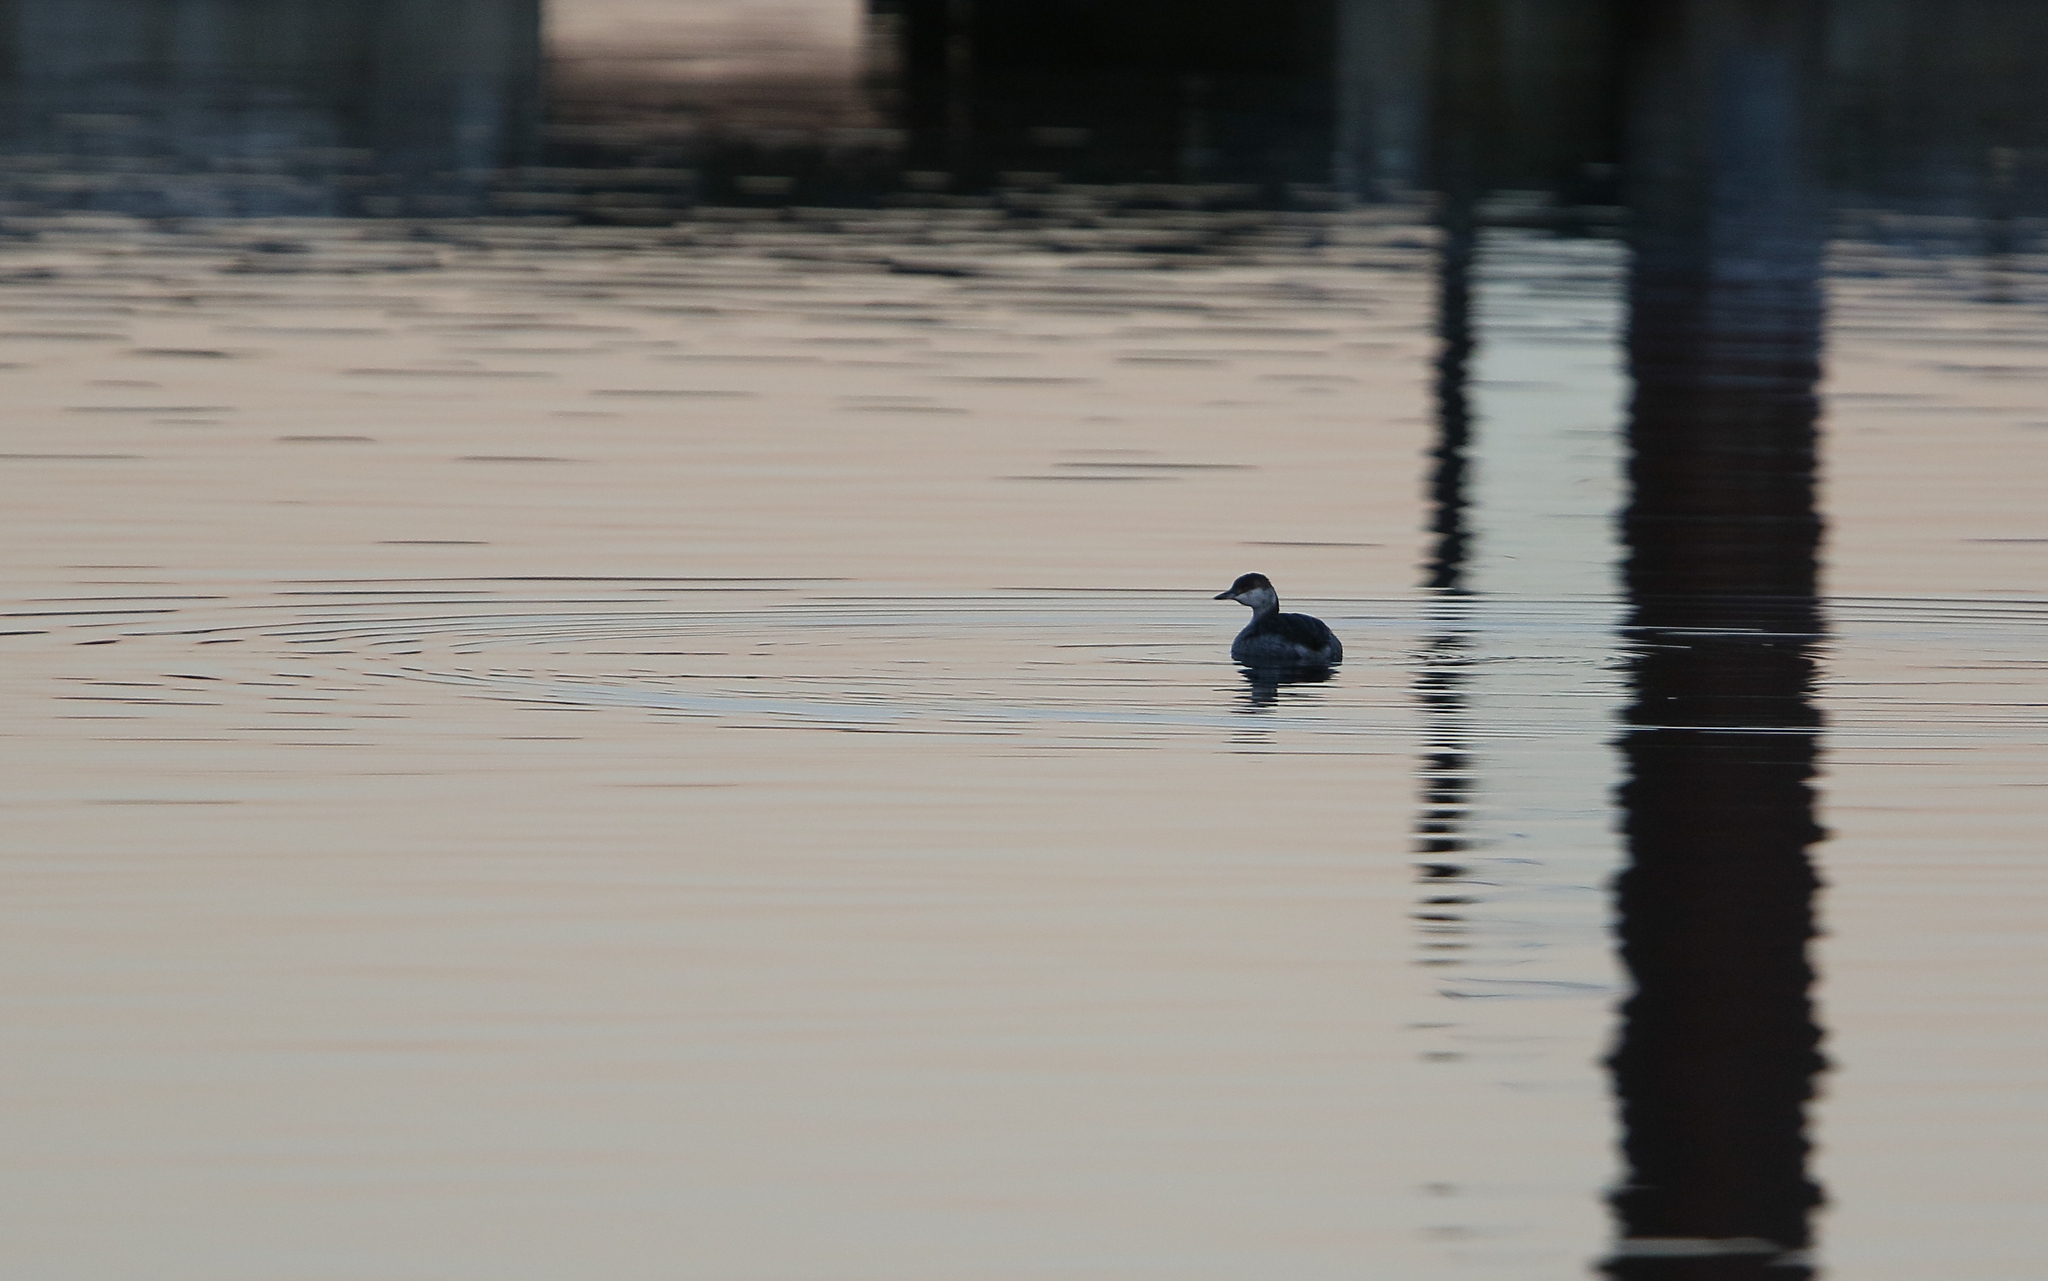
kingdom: Animalia
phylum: Chordata
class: Aves
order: Podicipediformes
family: Podicipedidae
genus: Podiceps
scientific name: Podiceps auritus
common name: Horned grebe
